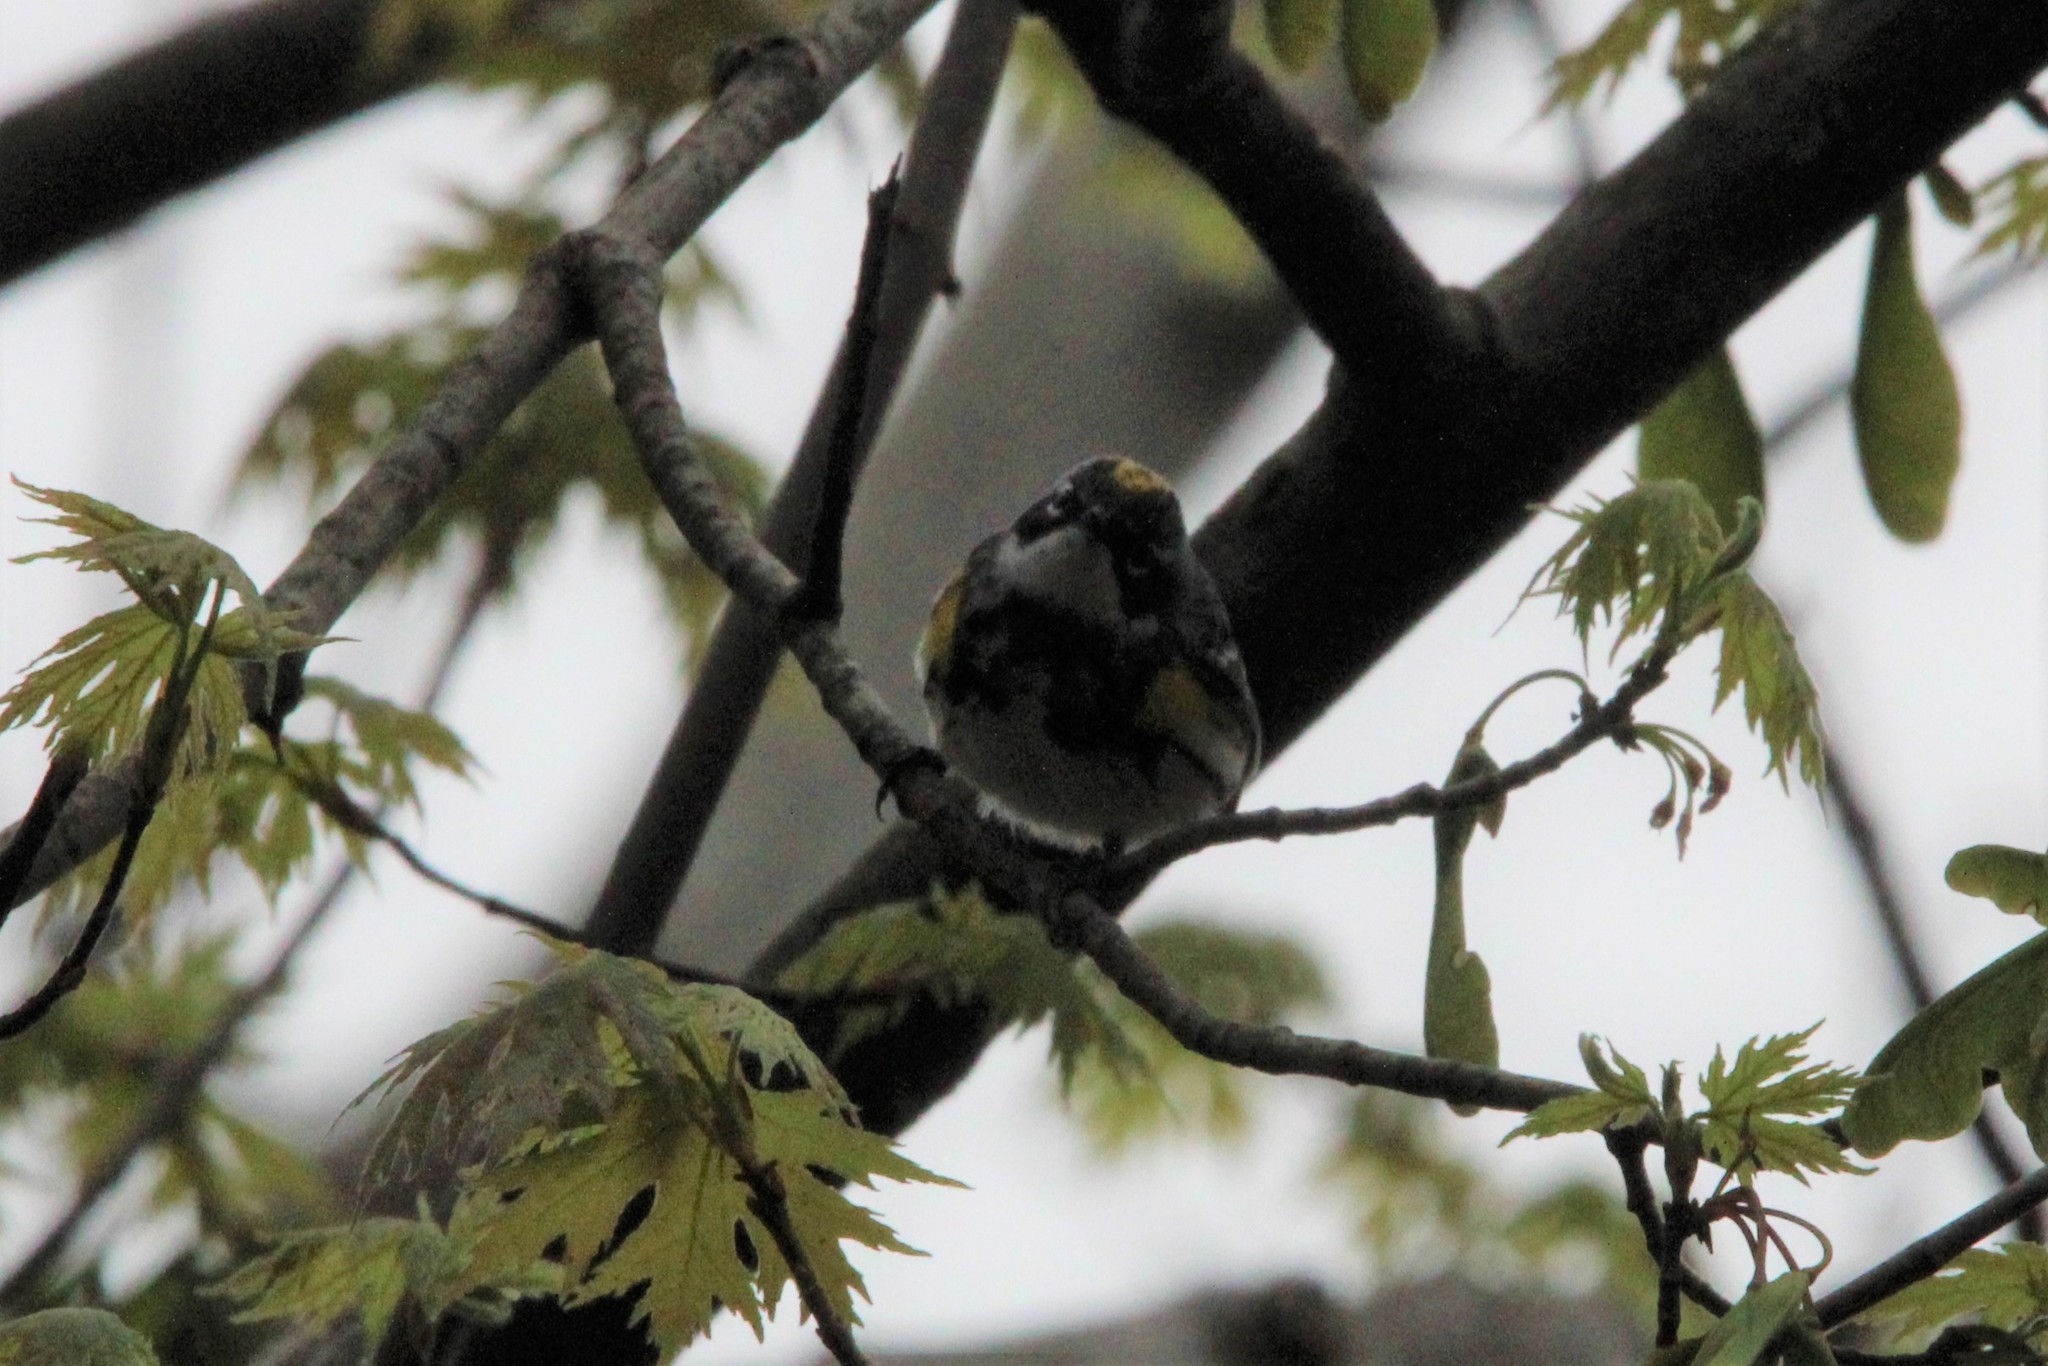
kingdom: Animalia
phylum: Chordata
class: Aves
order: Passeriformes
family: Parulidae
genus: Setophaga
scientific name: Setophaga coronata
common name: Myrtle warbler
